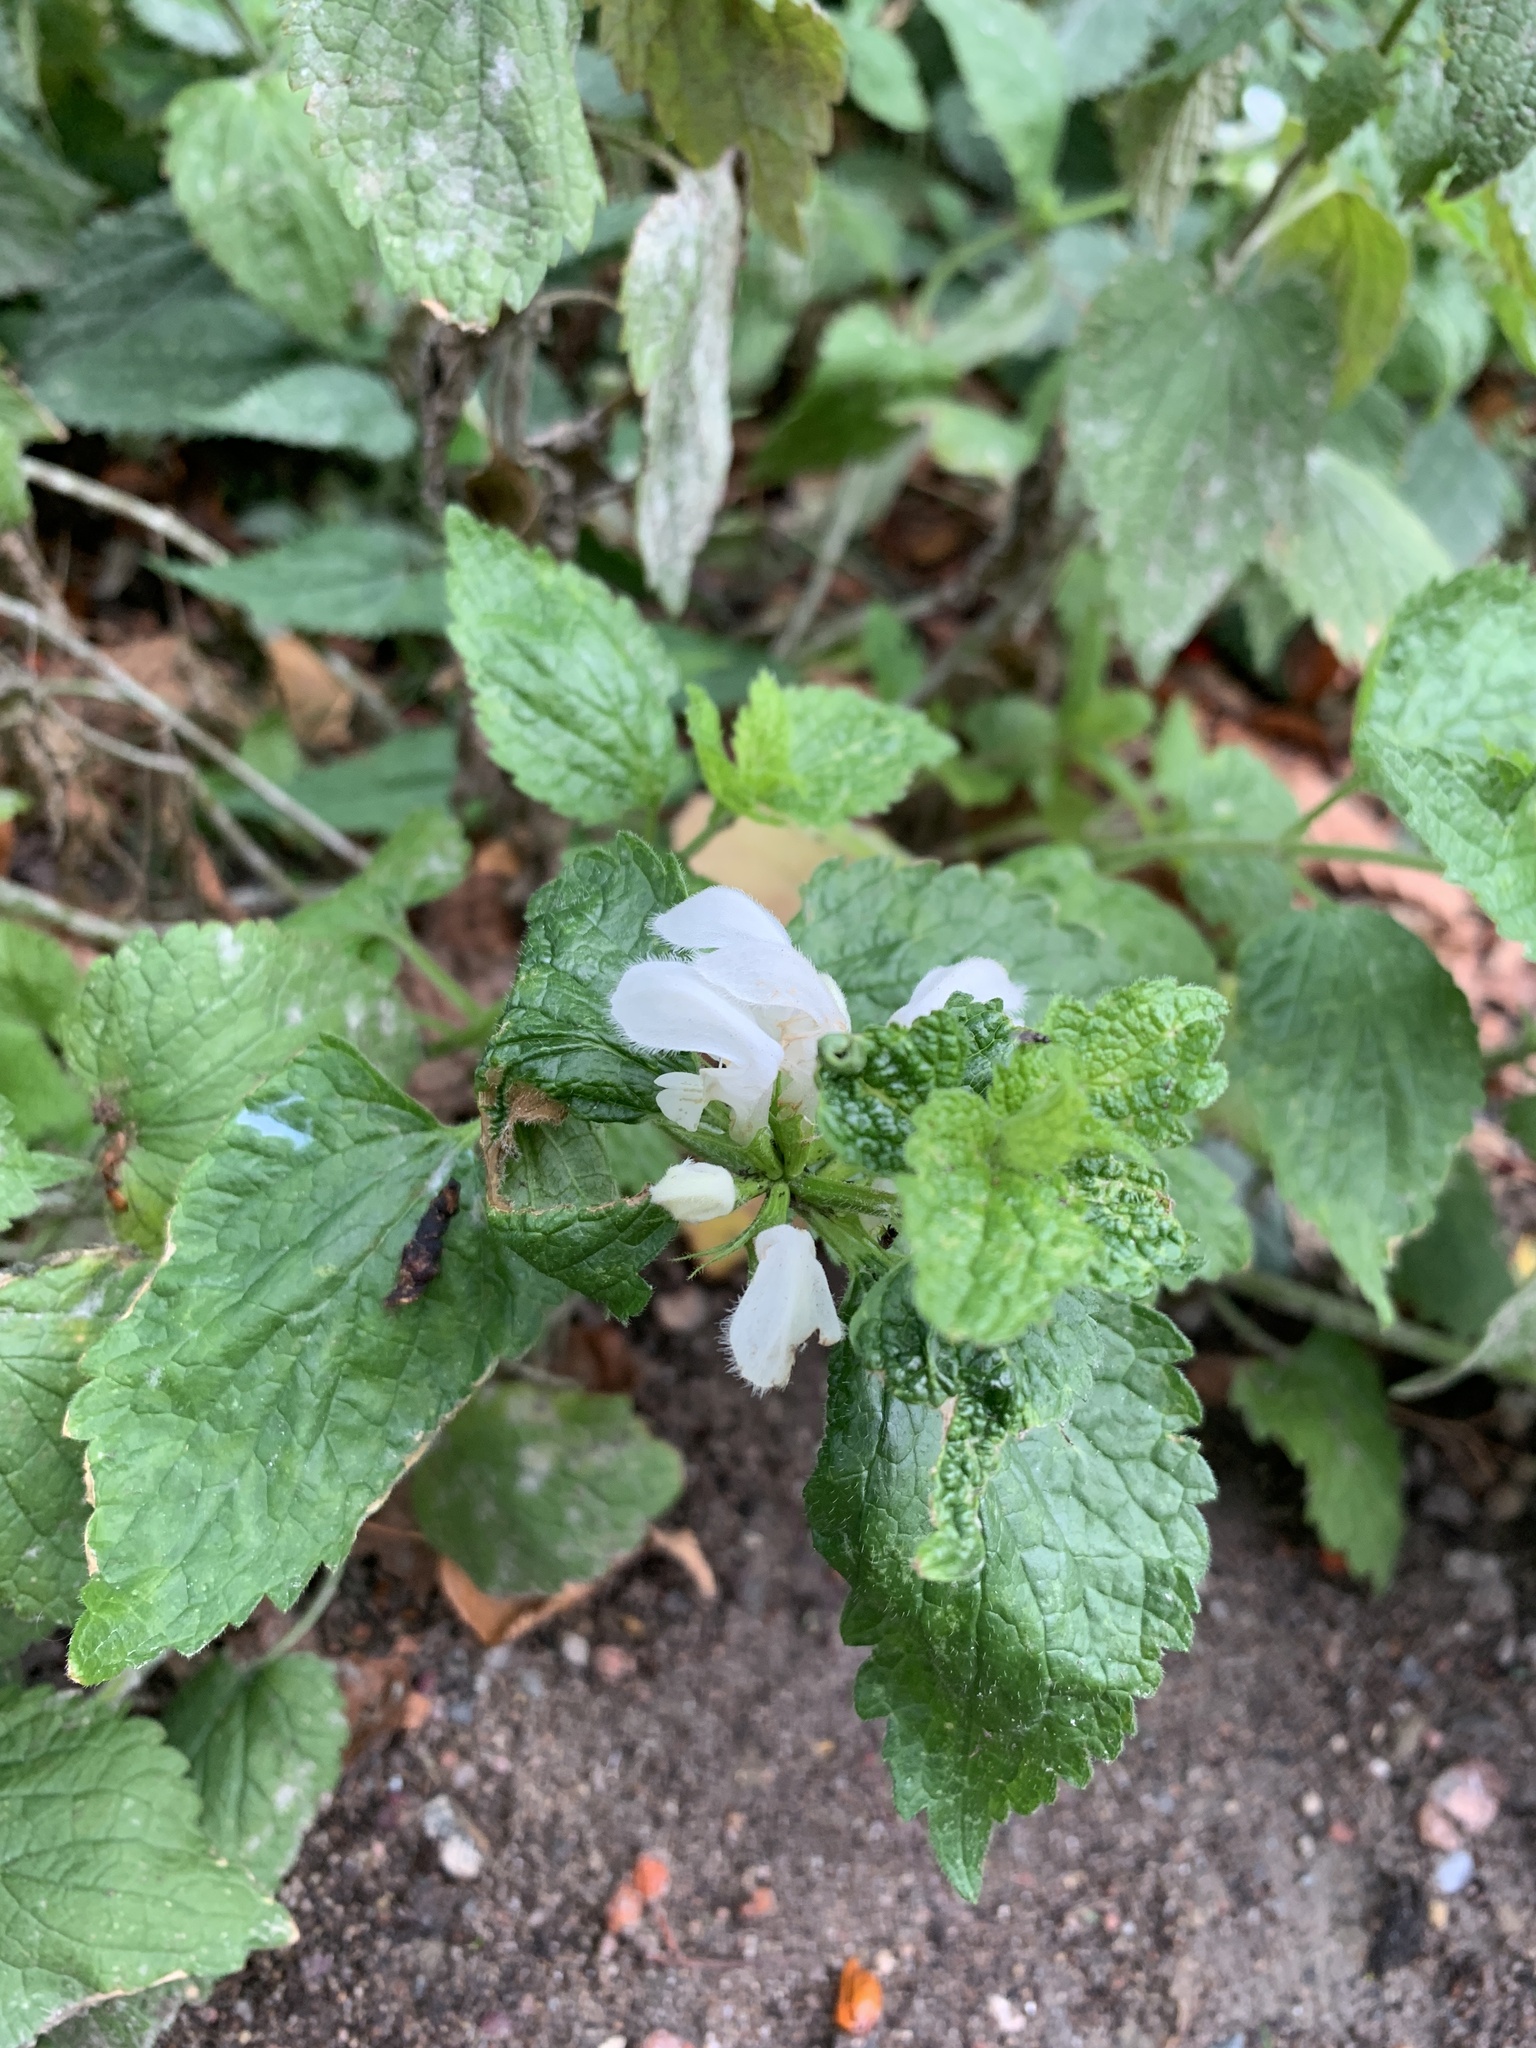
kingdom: Plantae
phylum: Tracheophyta
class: Magnoliopsida
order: Lamiales
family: Lamiaceae
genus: Lamium
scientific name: Lamium album
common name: White dead-nettle
